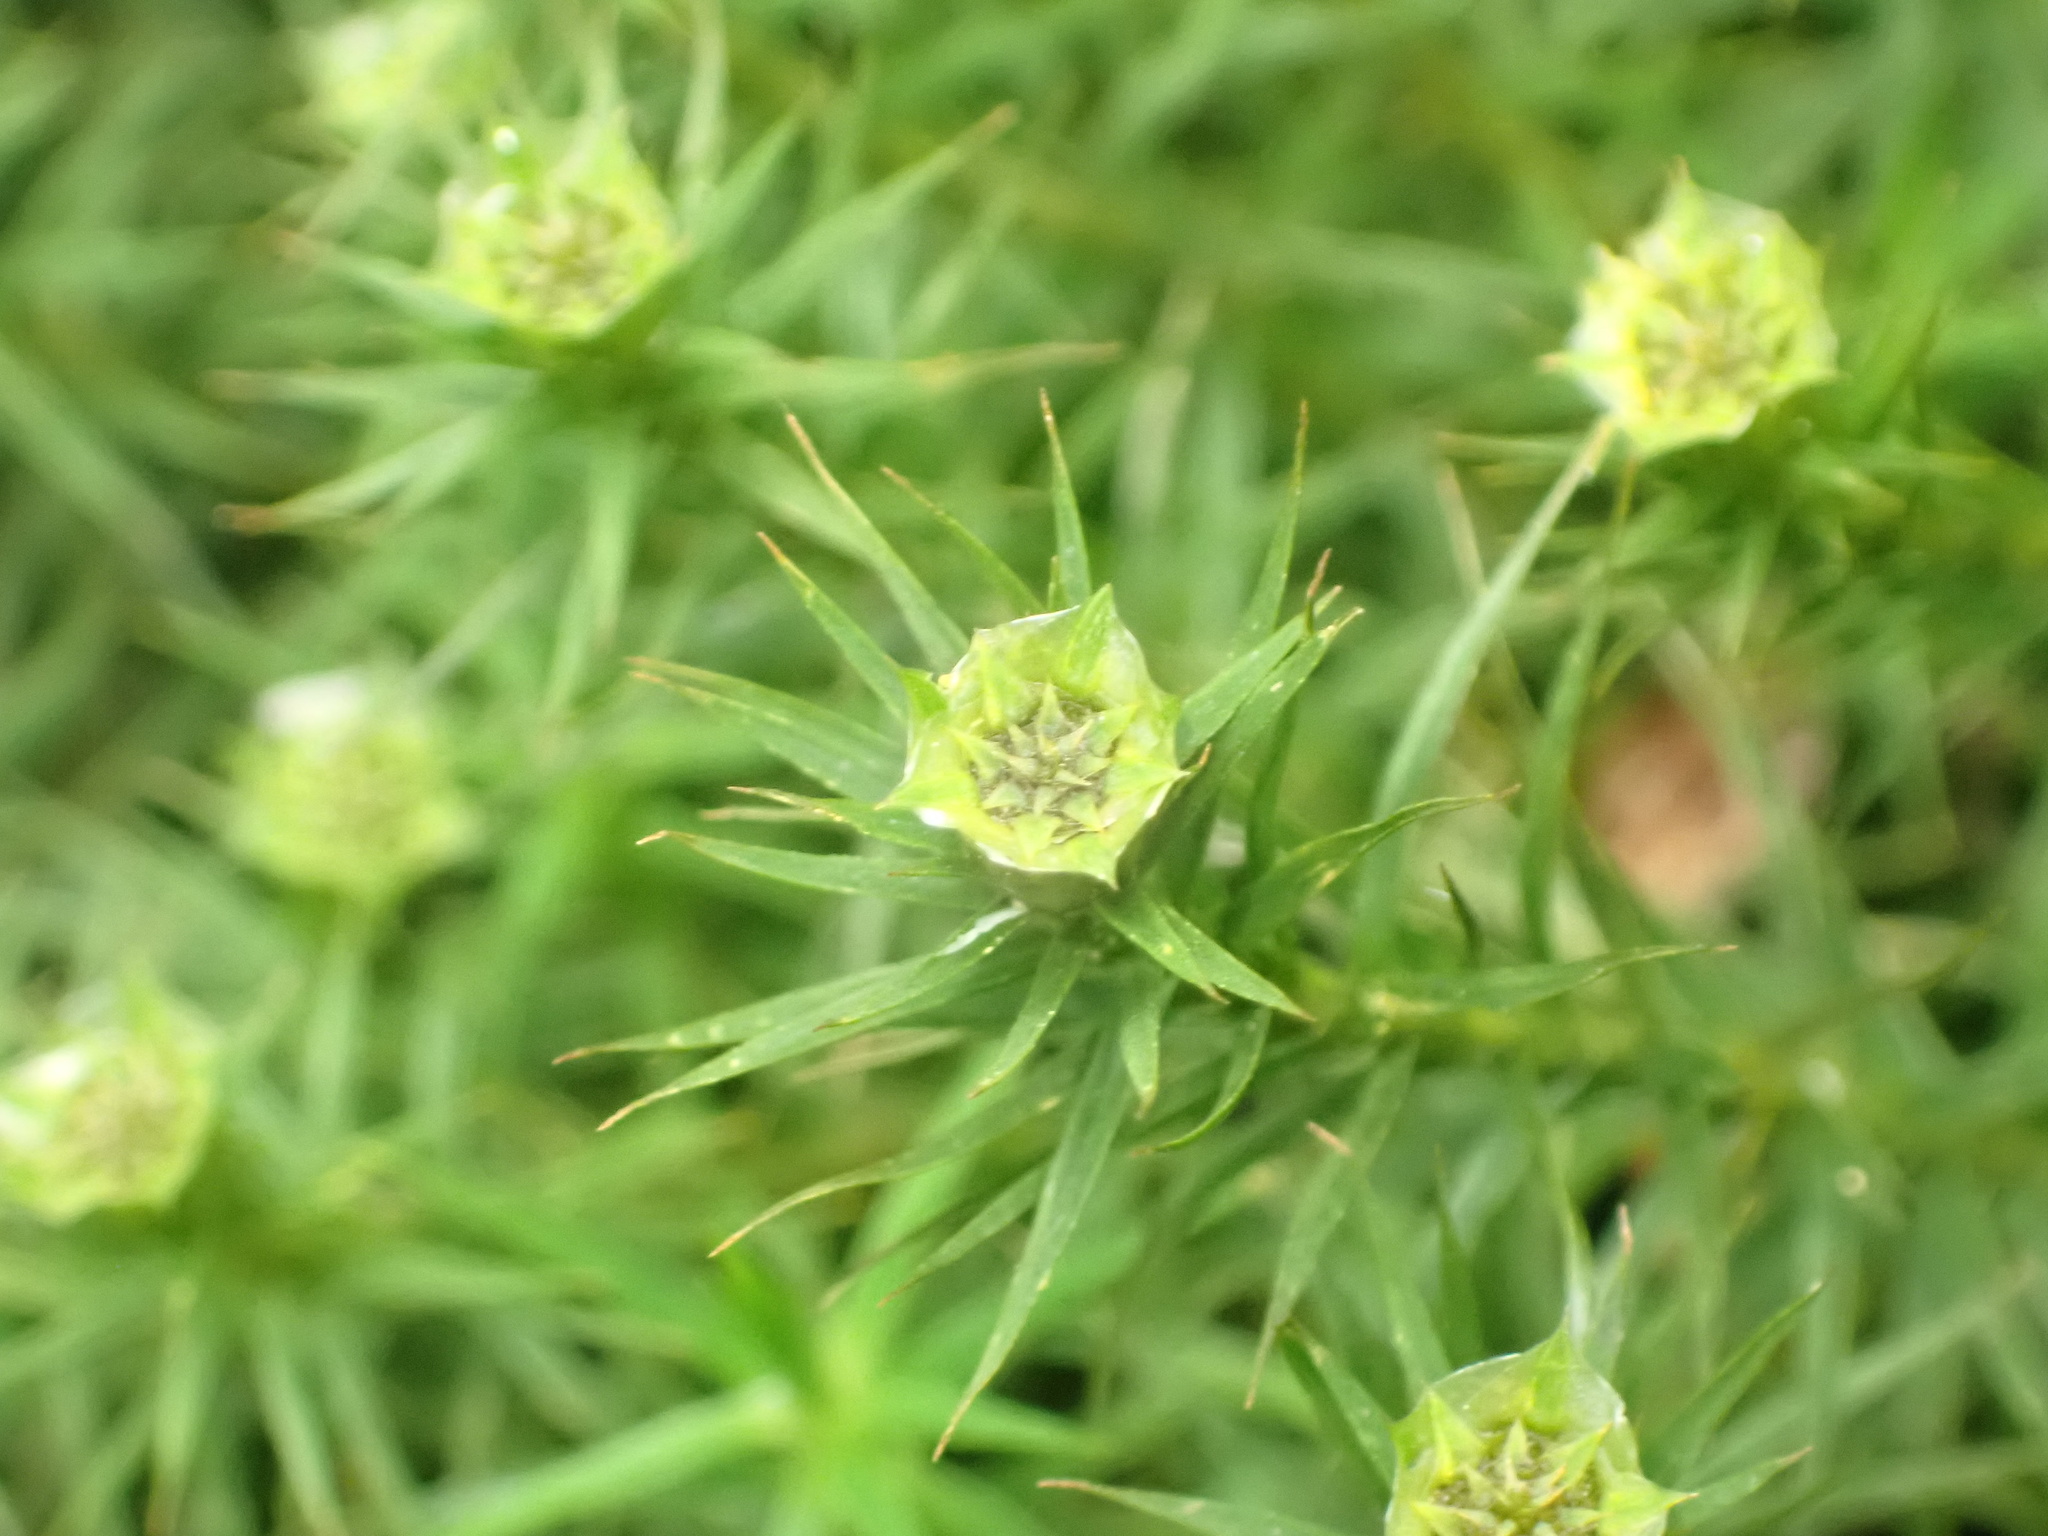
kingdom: Plantae
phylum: Bryophyta
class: Polytrichopsida
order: Polytrichales
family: Polytrichaceae
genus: Polytrichum
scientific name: Polytrichum formosum
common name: Bank haircap moss
